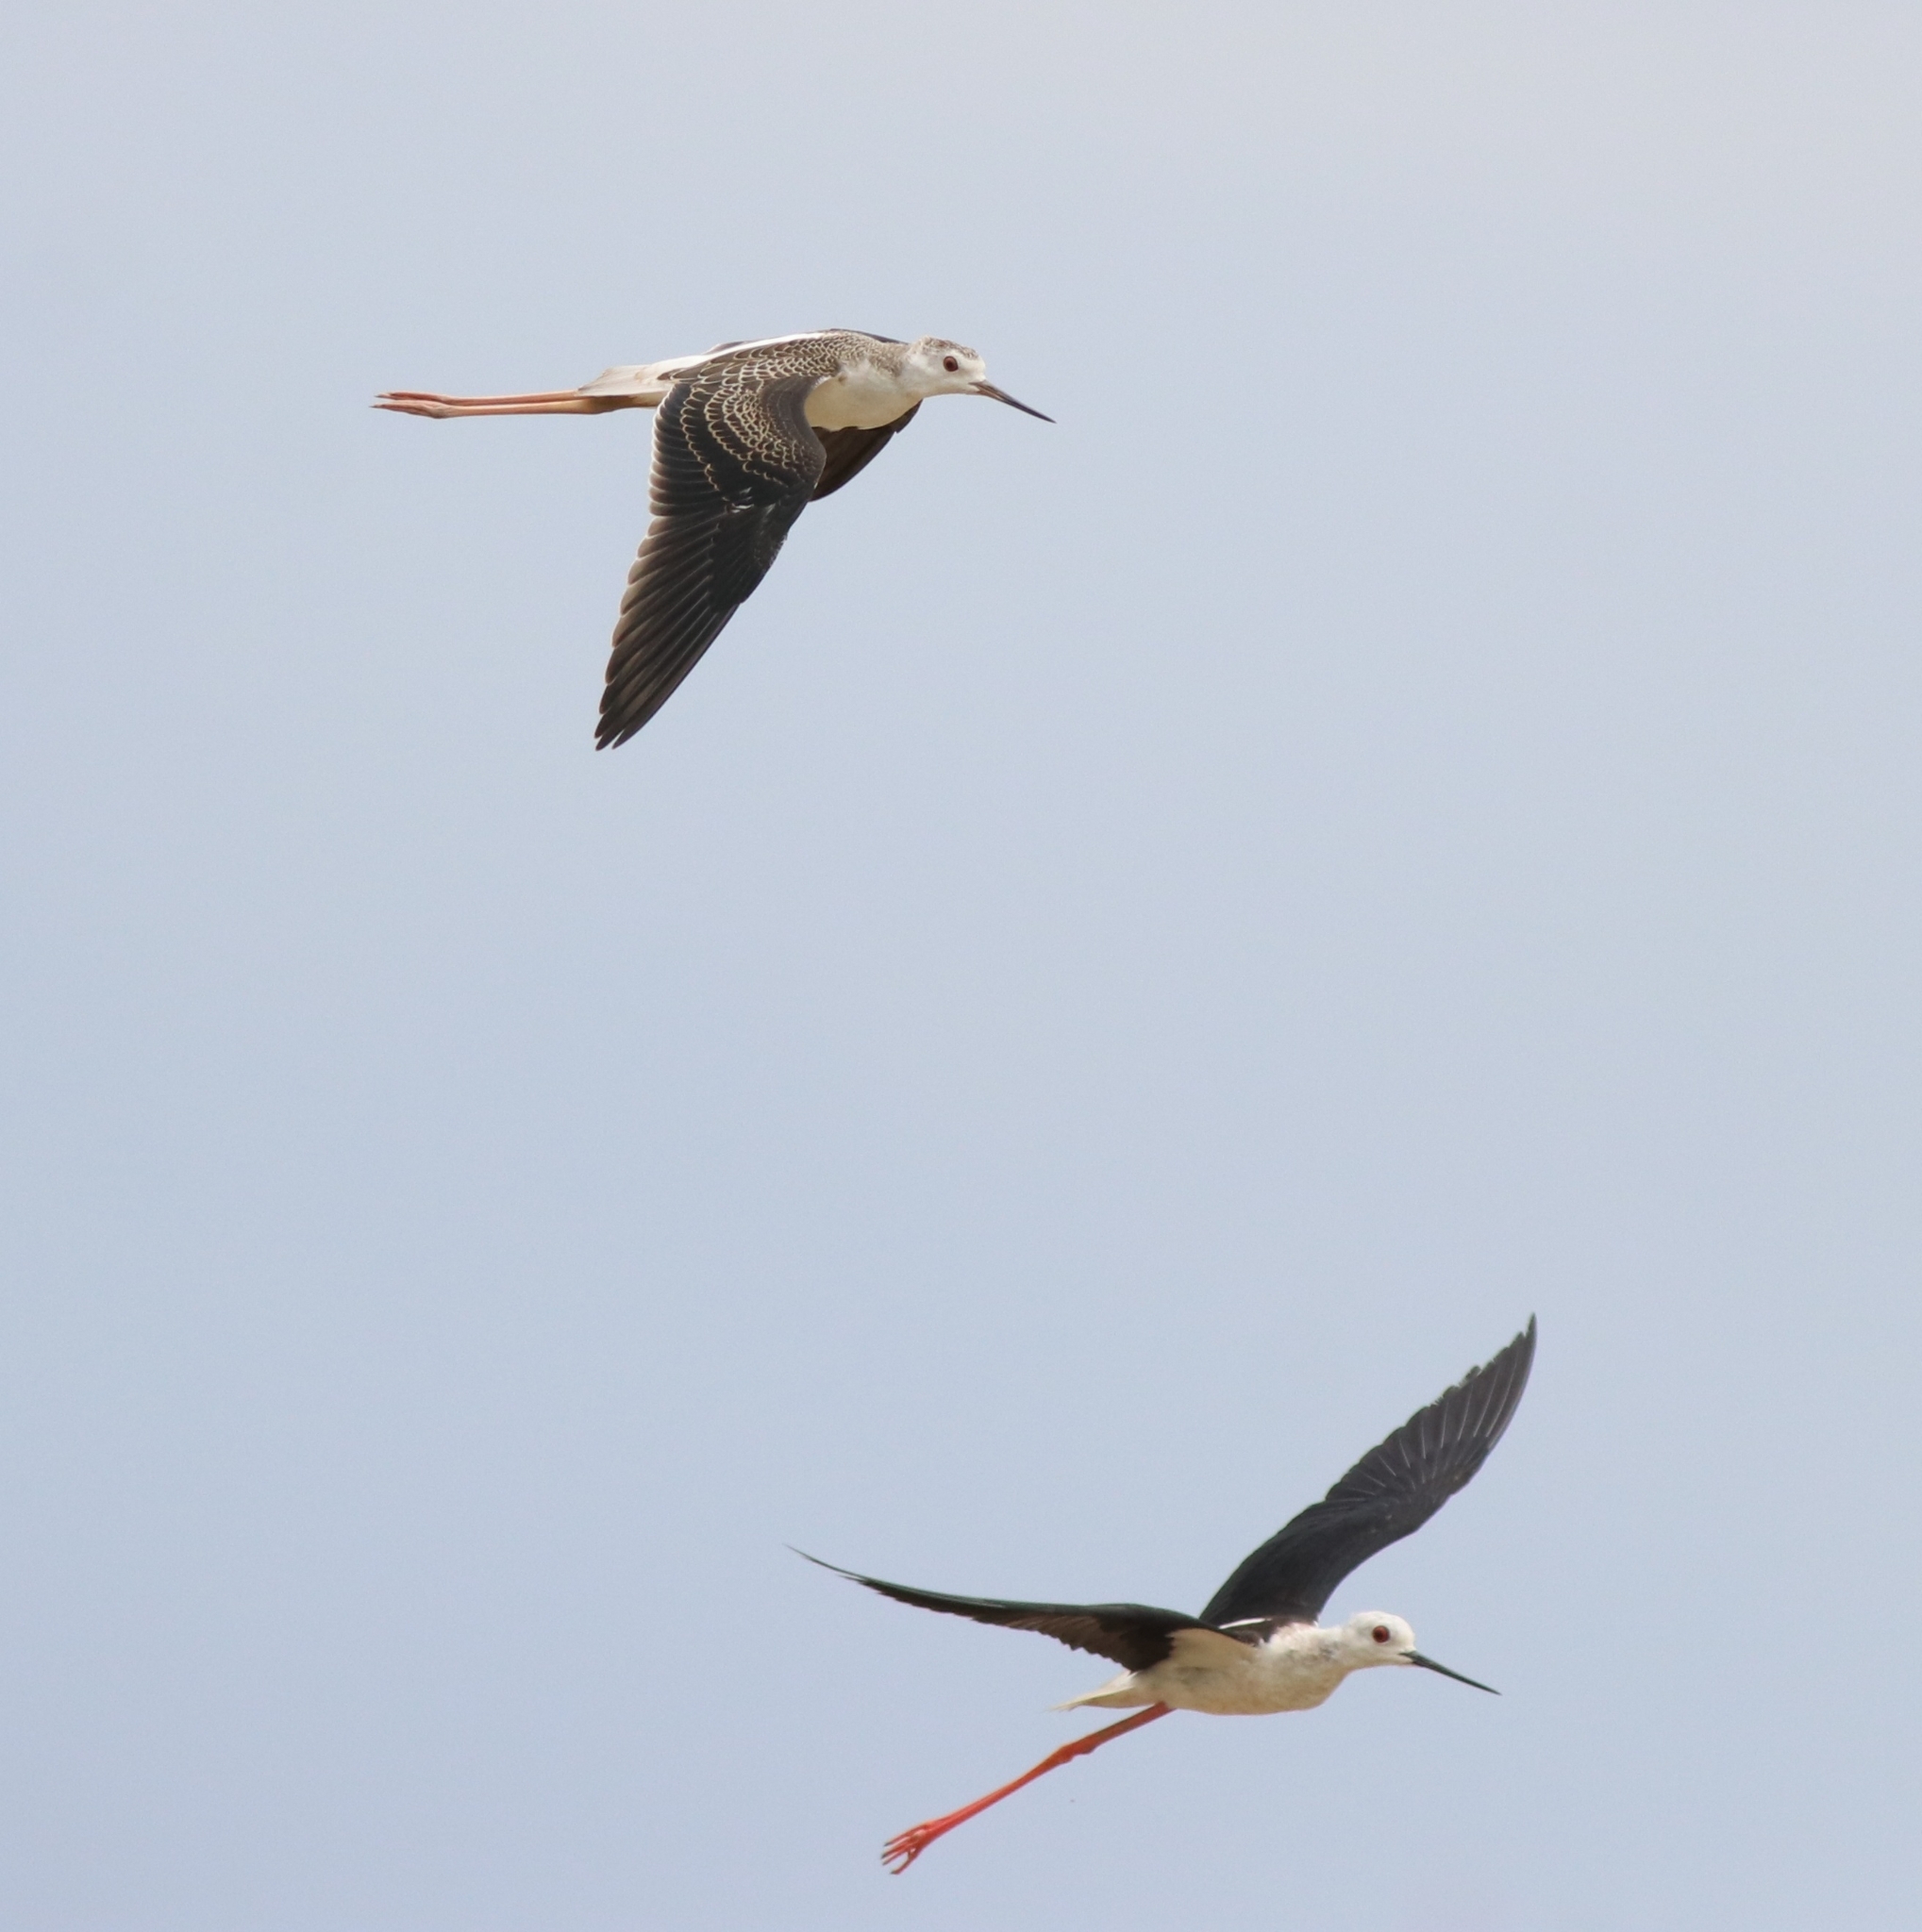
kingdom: Animalia
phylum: Chordata
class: Aves
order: Charadriiformes
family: Recurvirostridae
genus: Himantopus
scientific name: Himantopus himantopus
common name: Black-winged stilt
